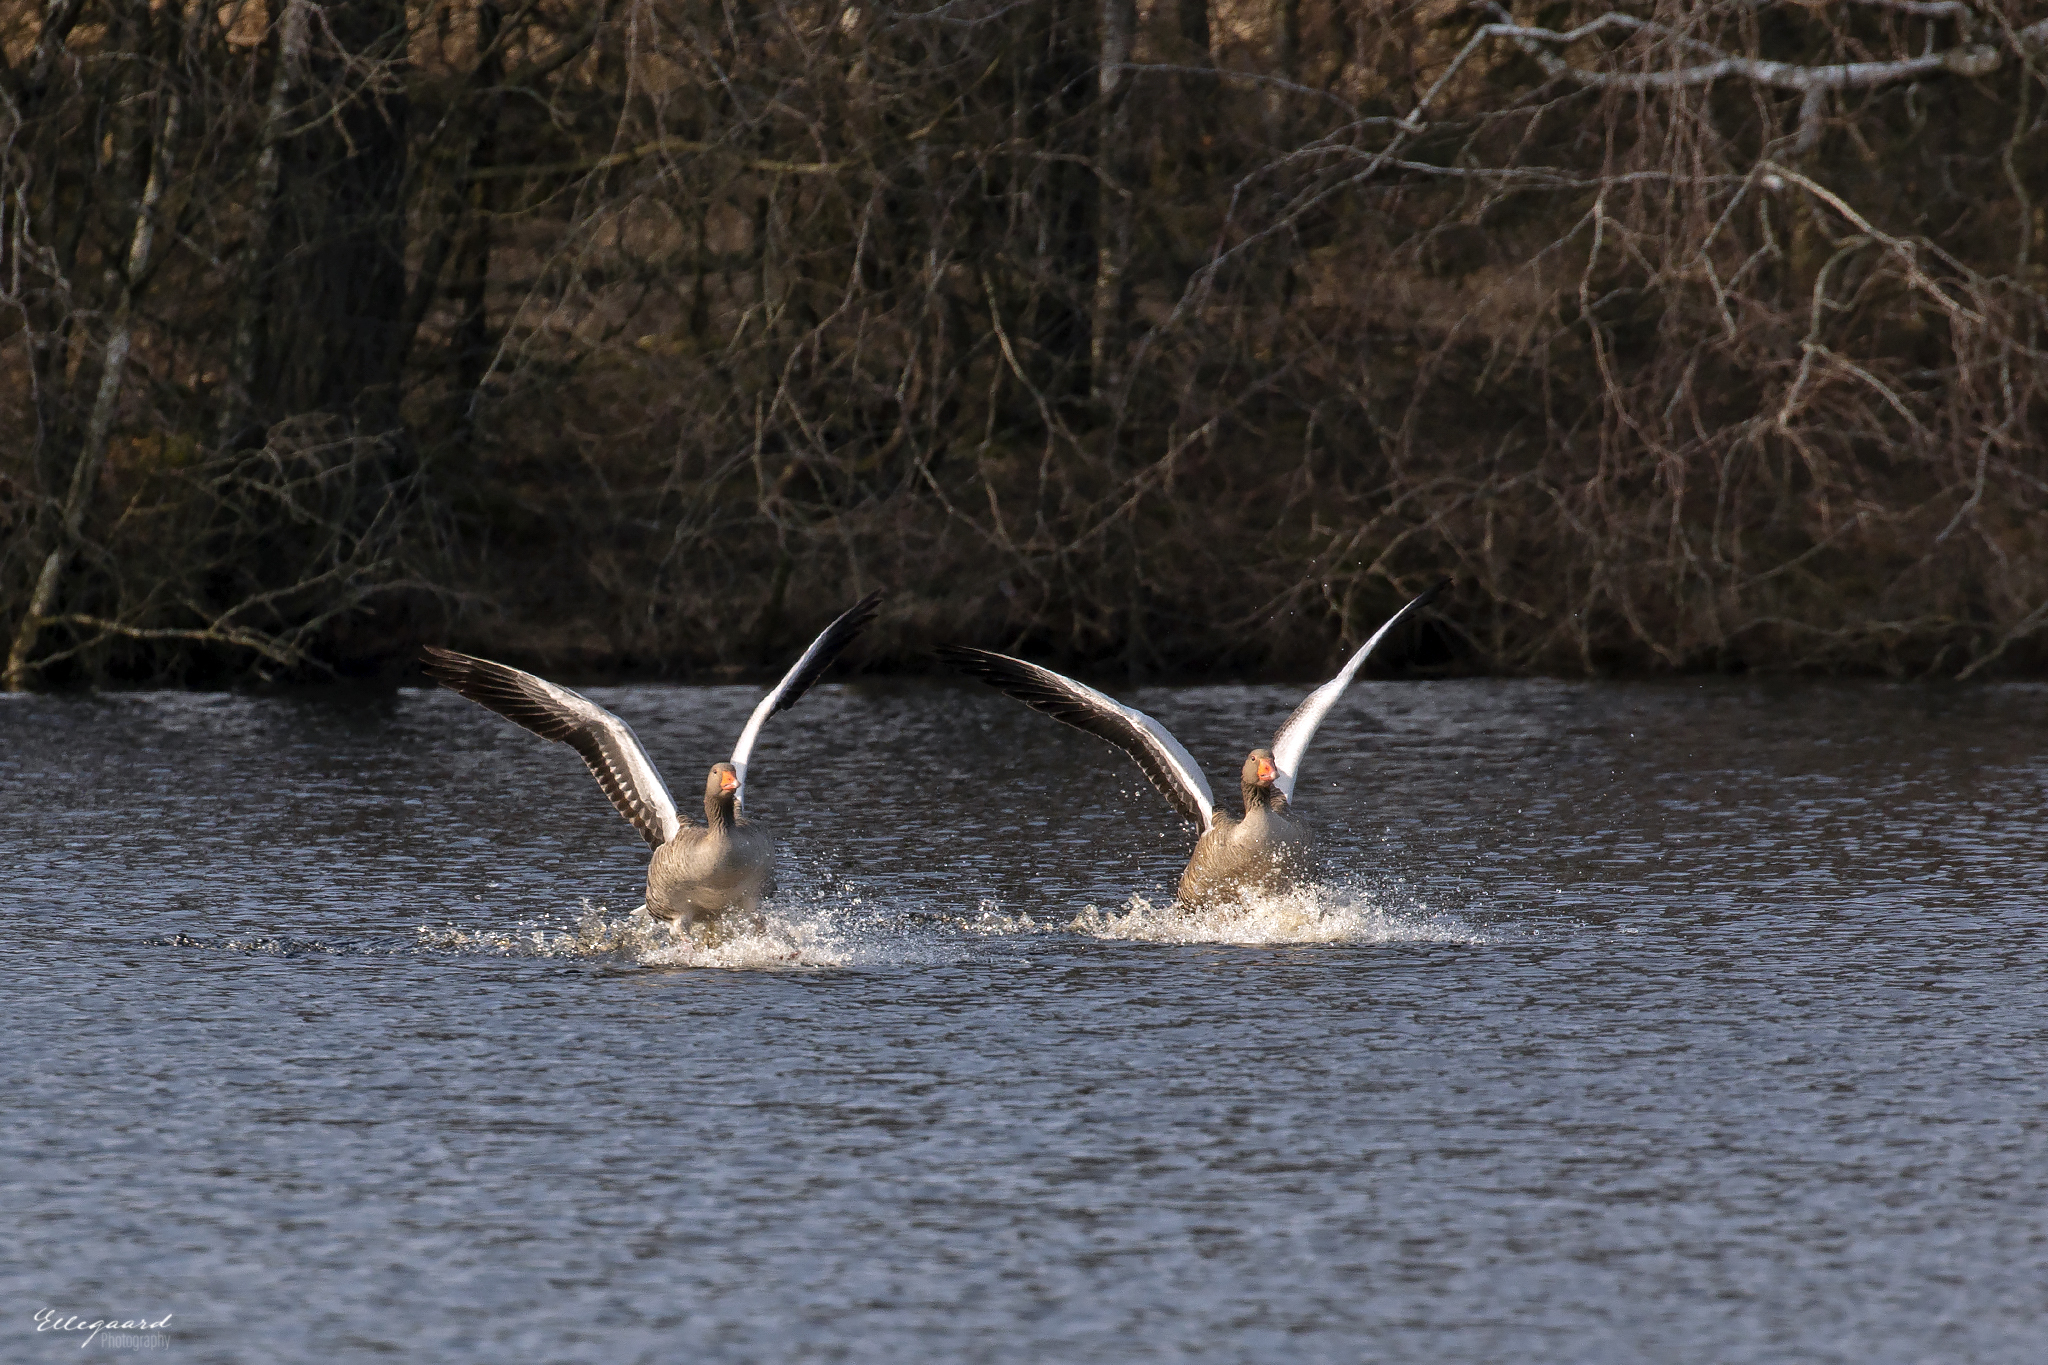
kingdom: Animalia
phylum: Chordata
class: Aves
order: Anseriformes
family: Anatidae
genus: Anser
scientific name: Anser anser
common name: Greylag goose
